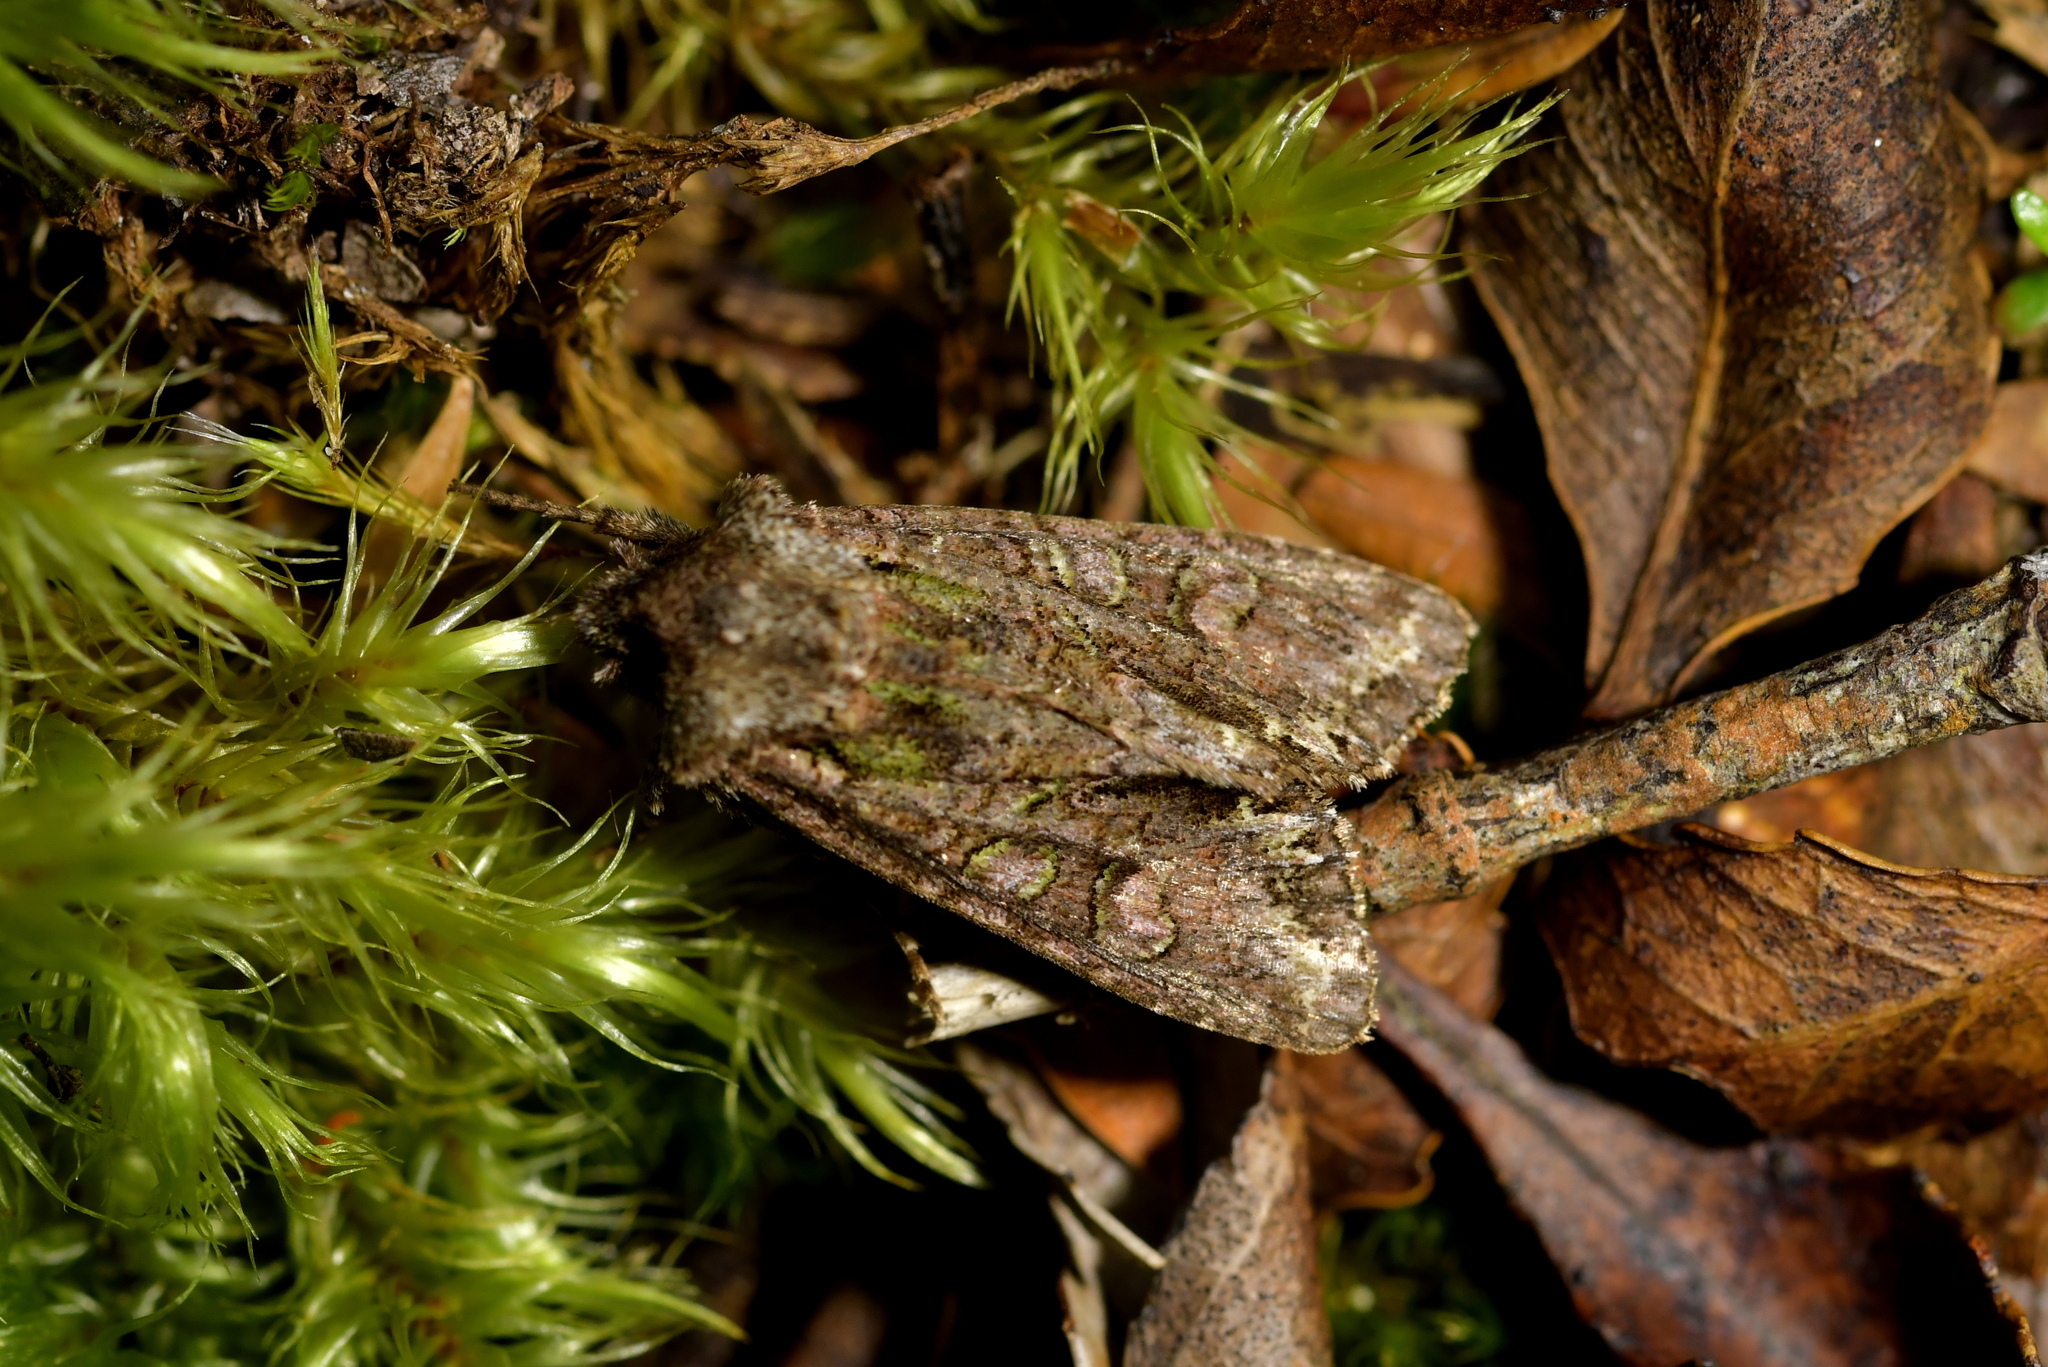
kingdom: Animalia
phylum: Arthropoda
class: Insecta
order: Lepidoptera
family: Noctuidae
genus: Ichneutica
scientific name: Ichneutica insignis
